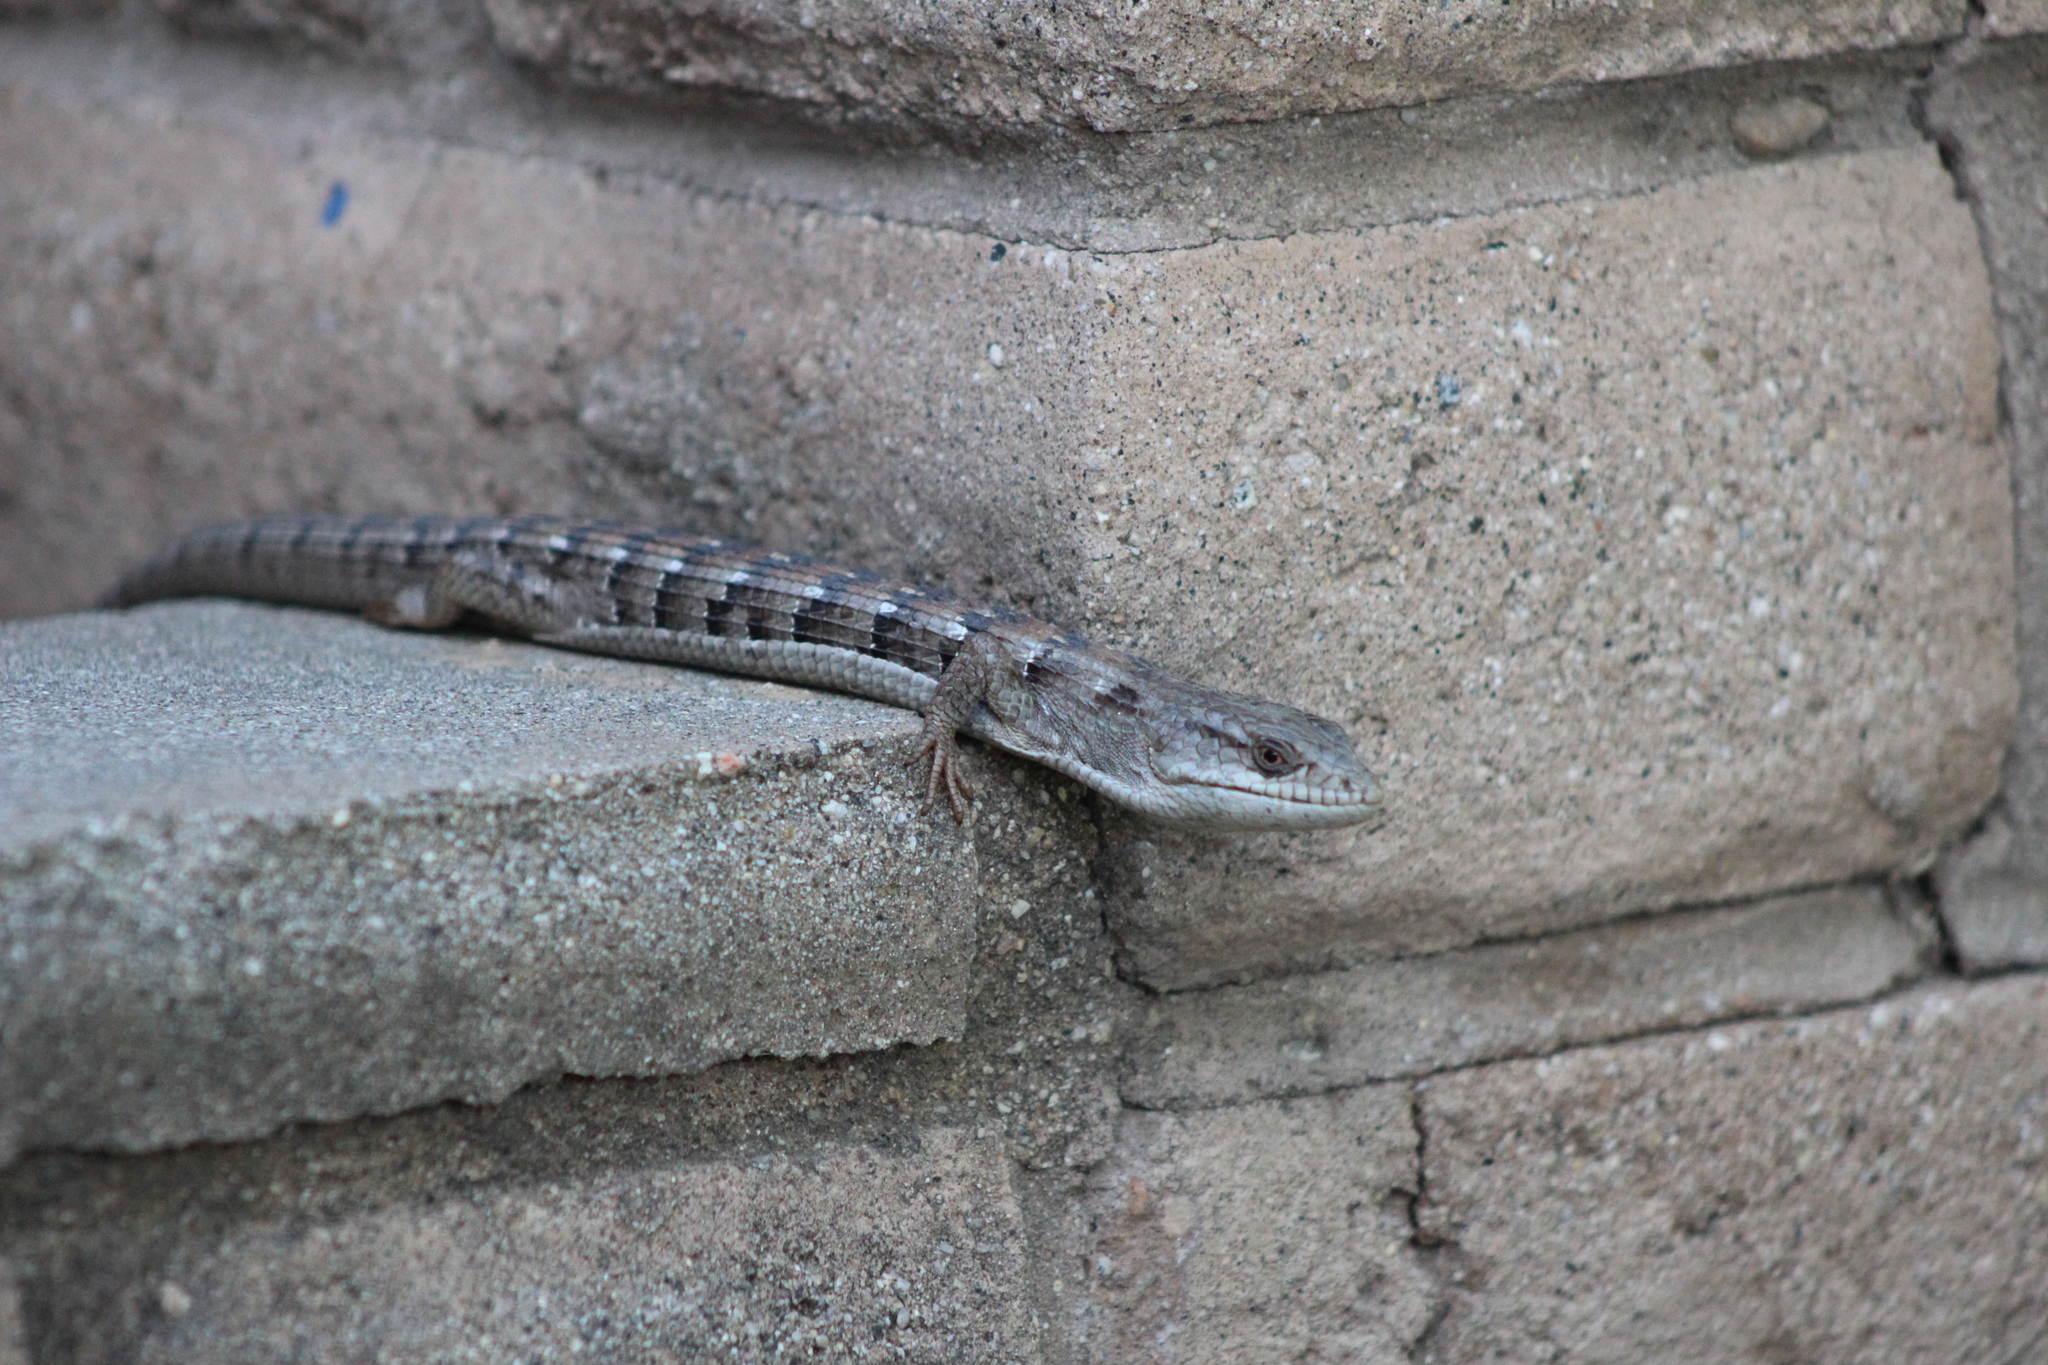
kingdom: Animalia
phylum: Chordata
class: Squamata
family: Anguidae
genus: Elgaria
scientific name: Elgaria multicarinata
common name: Southern alligator lizard
